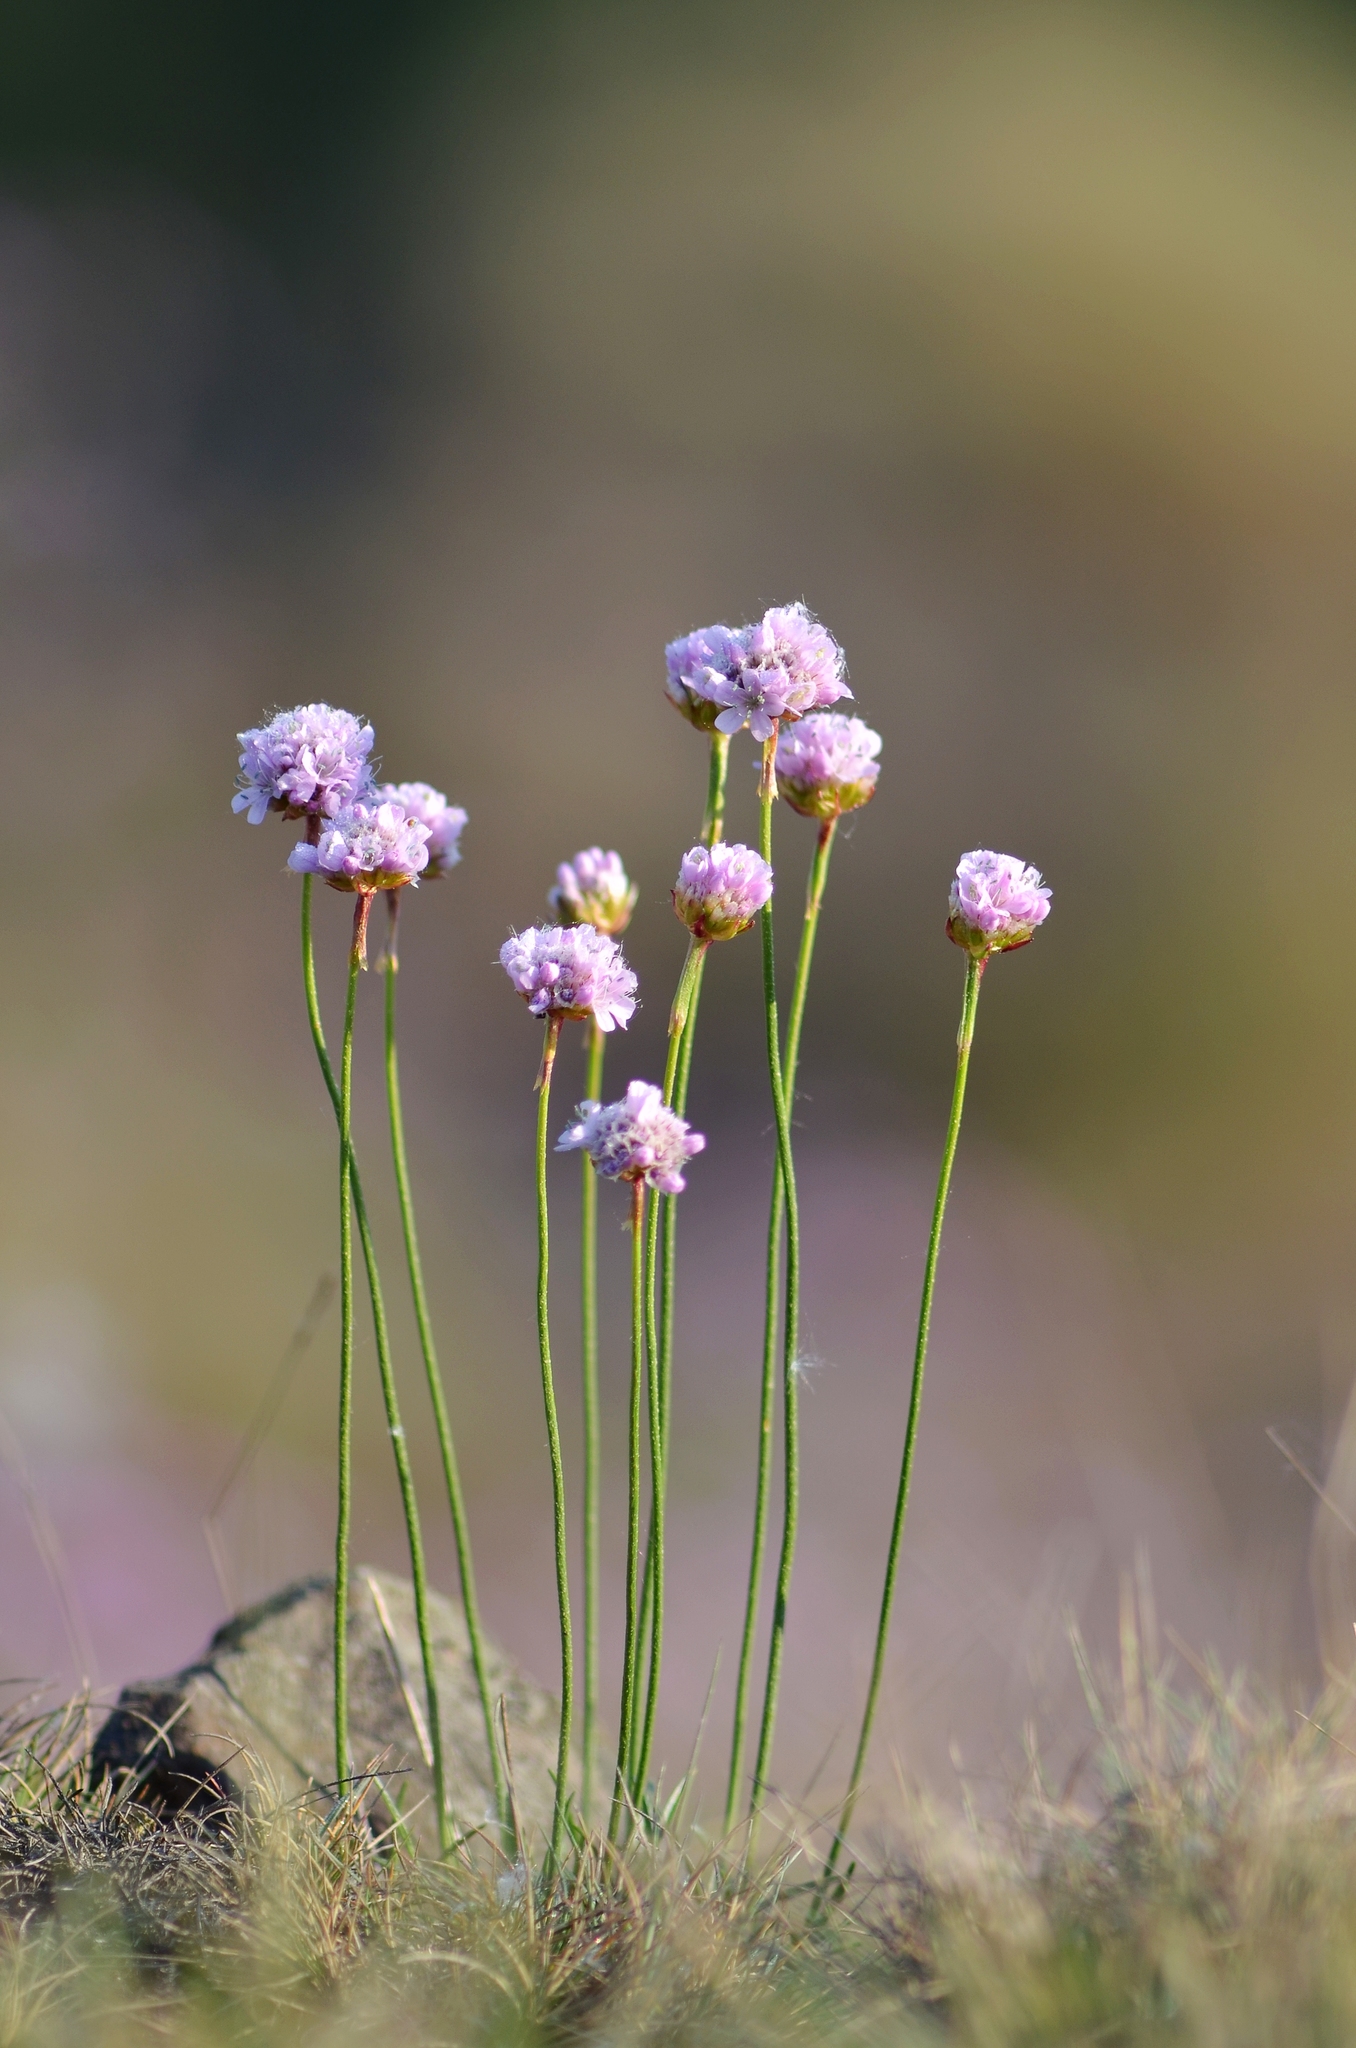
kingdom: Plantae
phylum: Tracheophyta
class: Magnoliopsida
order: Caryophyllales
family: Plumbaginaceae
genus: Armeria
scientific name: Armeria maritima
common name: Thrift
